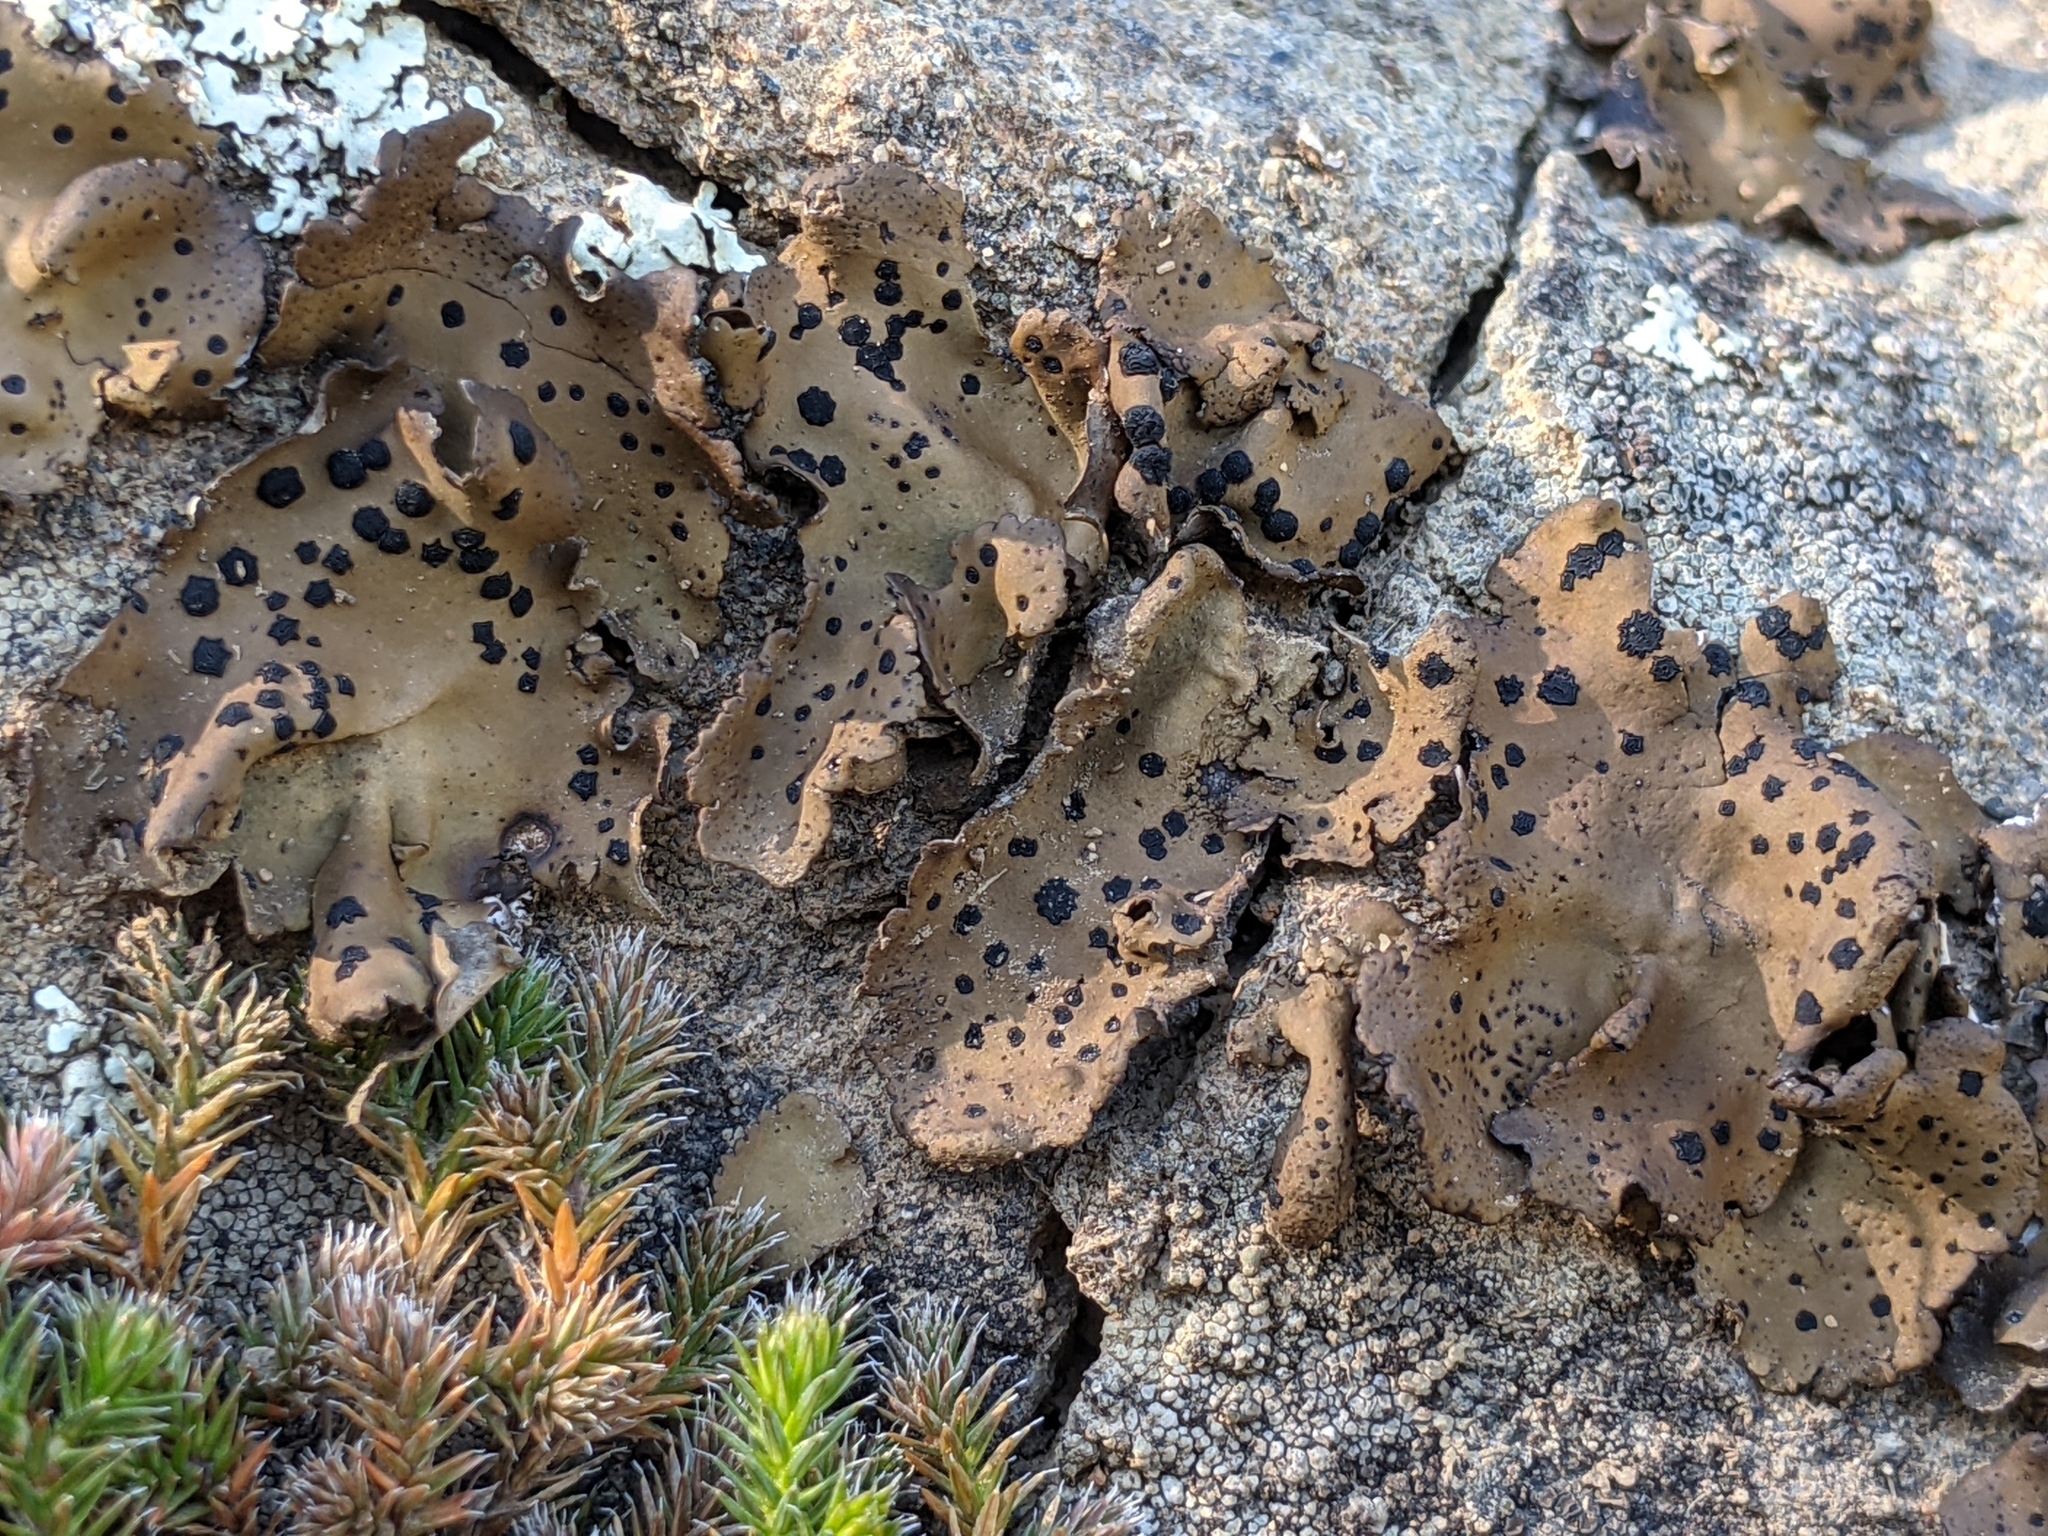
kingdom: Fungi
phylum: Ascomycota
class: Lecanoromycetes
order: Umbilicariales
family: Umbilicariaceae
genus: Umbilicaria
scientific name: Umbilicaria phaea
